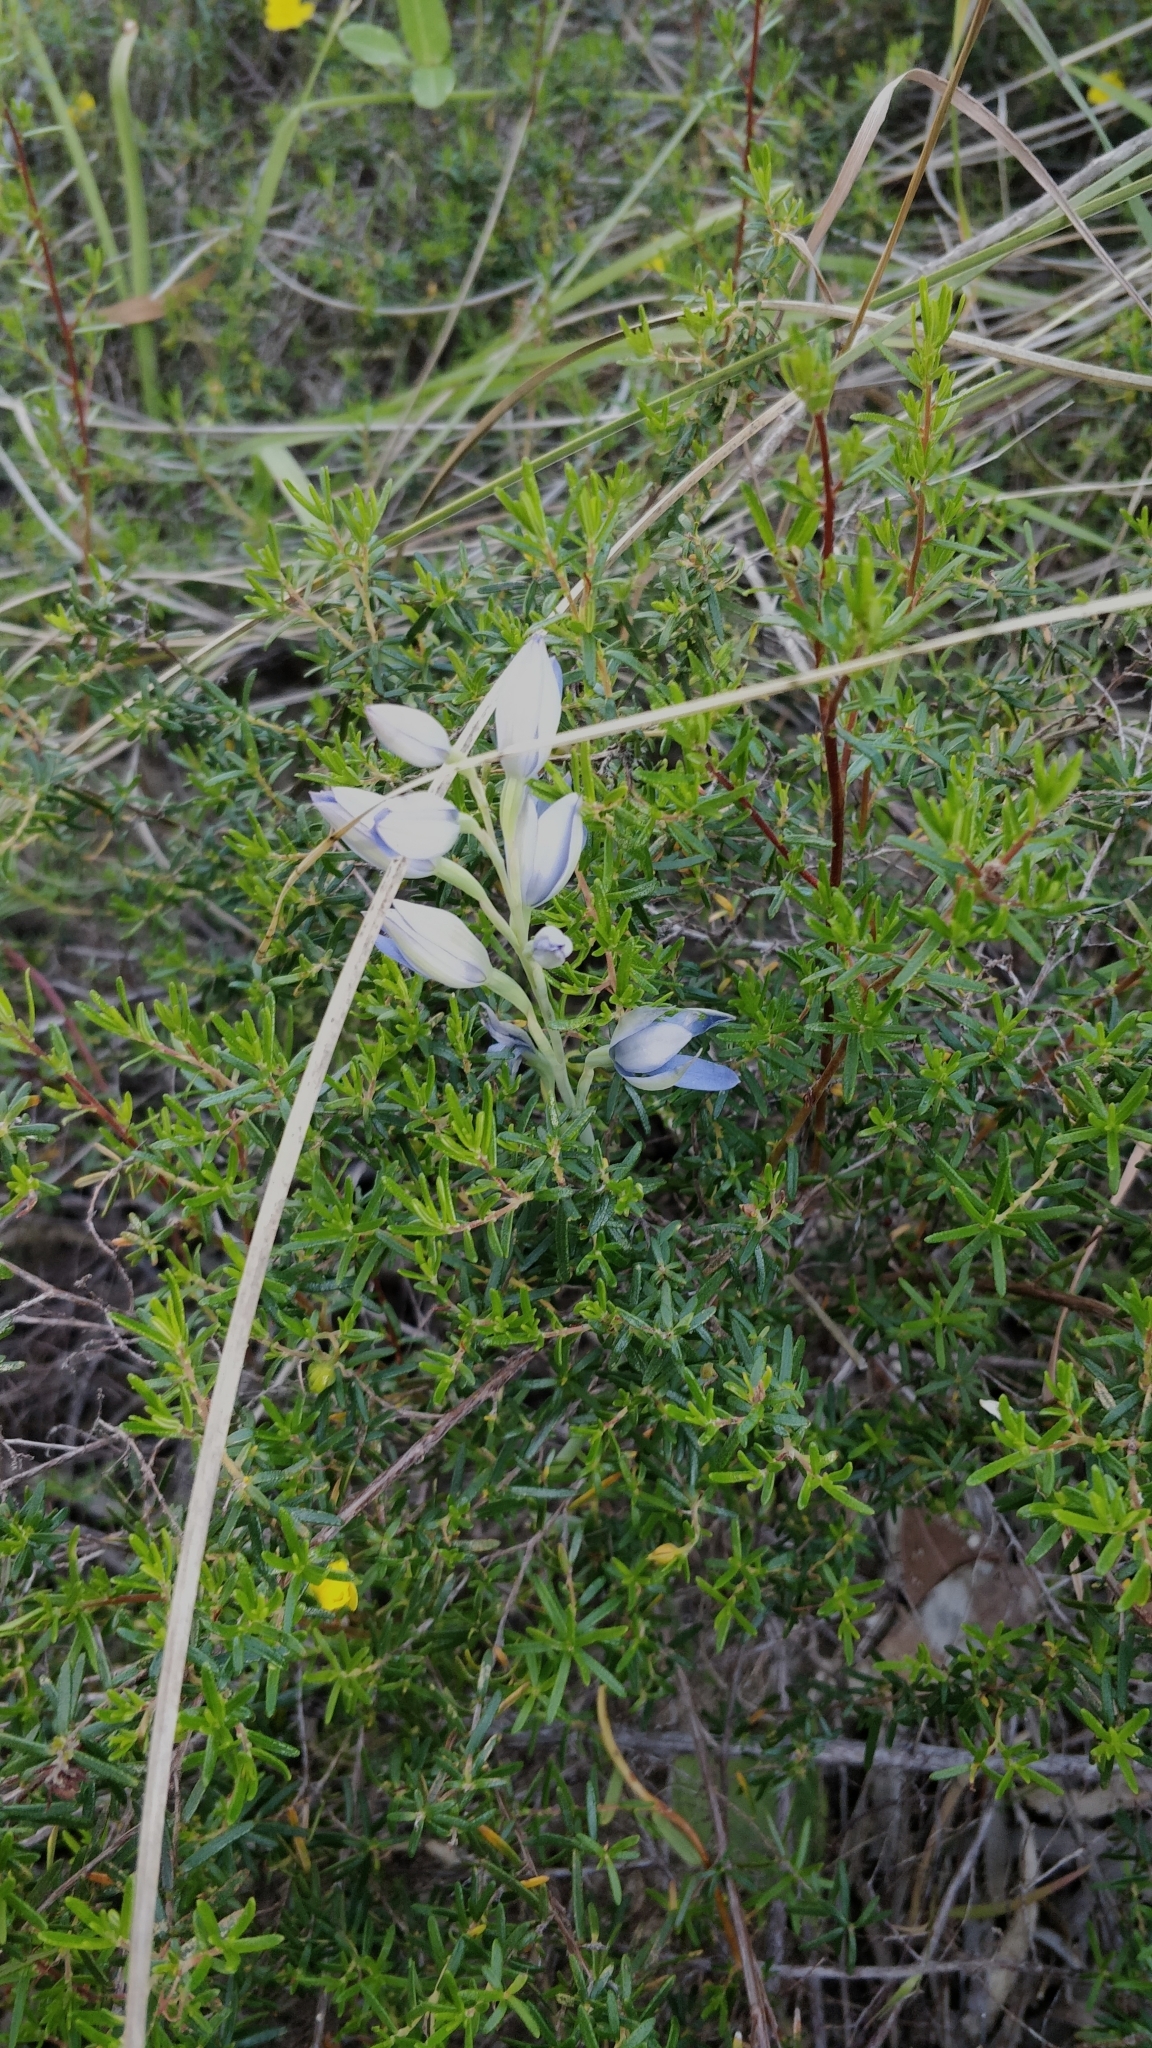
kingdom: Plantae
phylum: Tracheophyta
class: Liliopsida
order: Asparagales
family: Orchidaceae
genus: Thelymitra
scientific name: Thelymitra crinita
